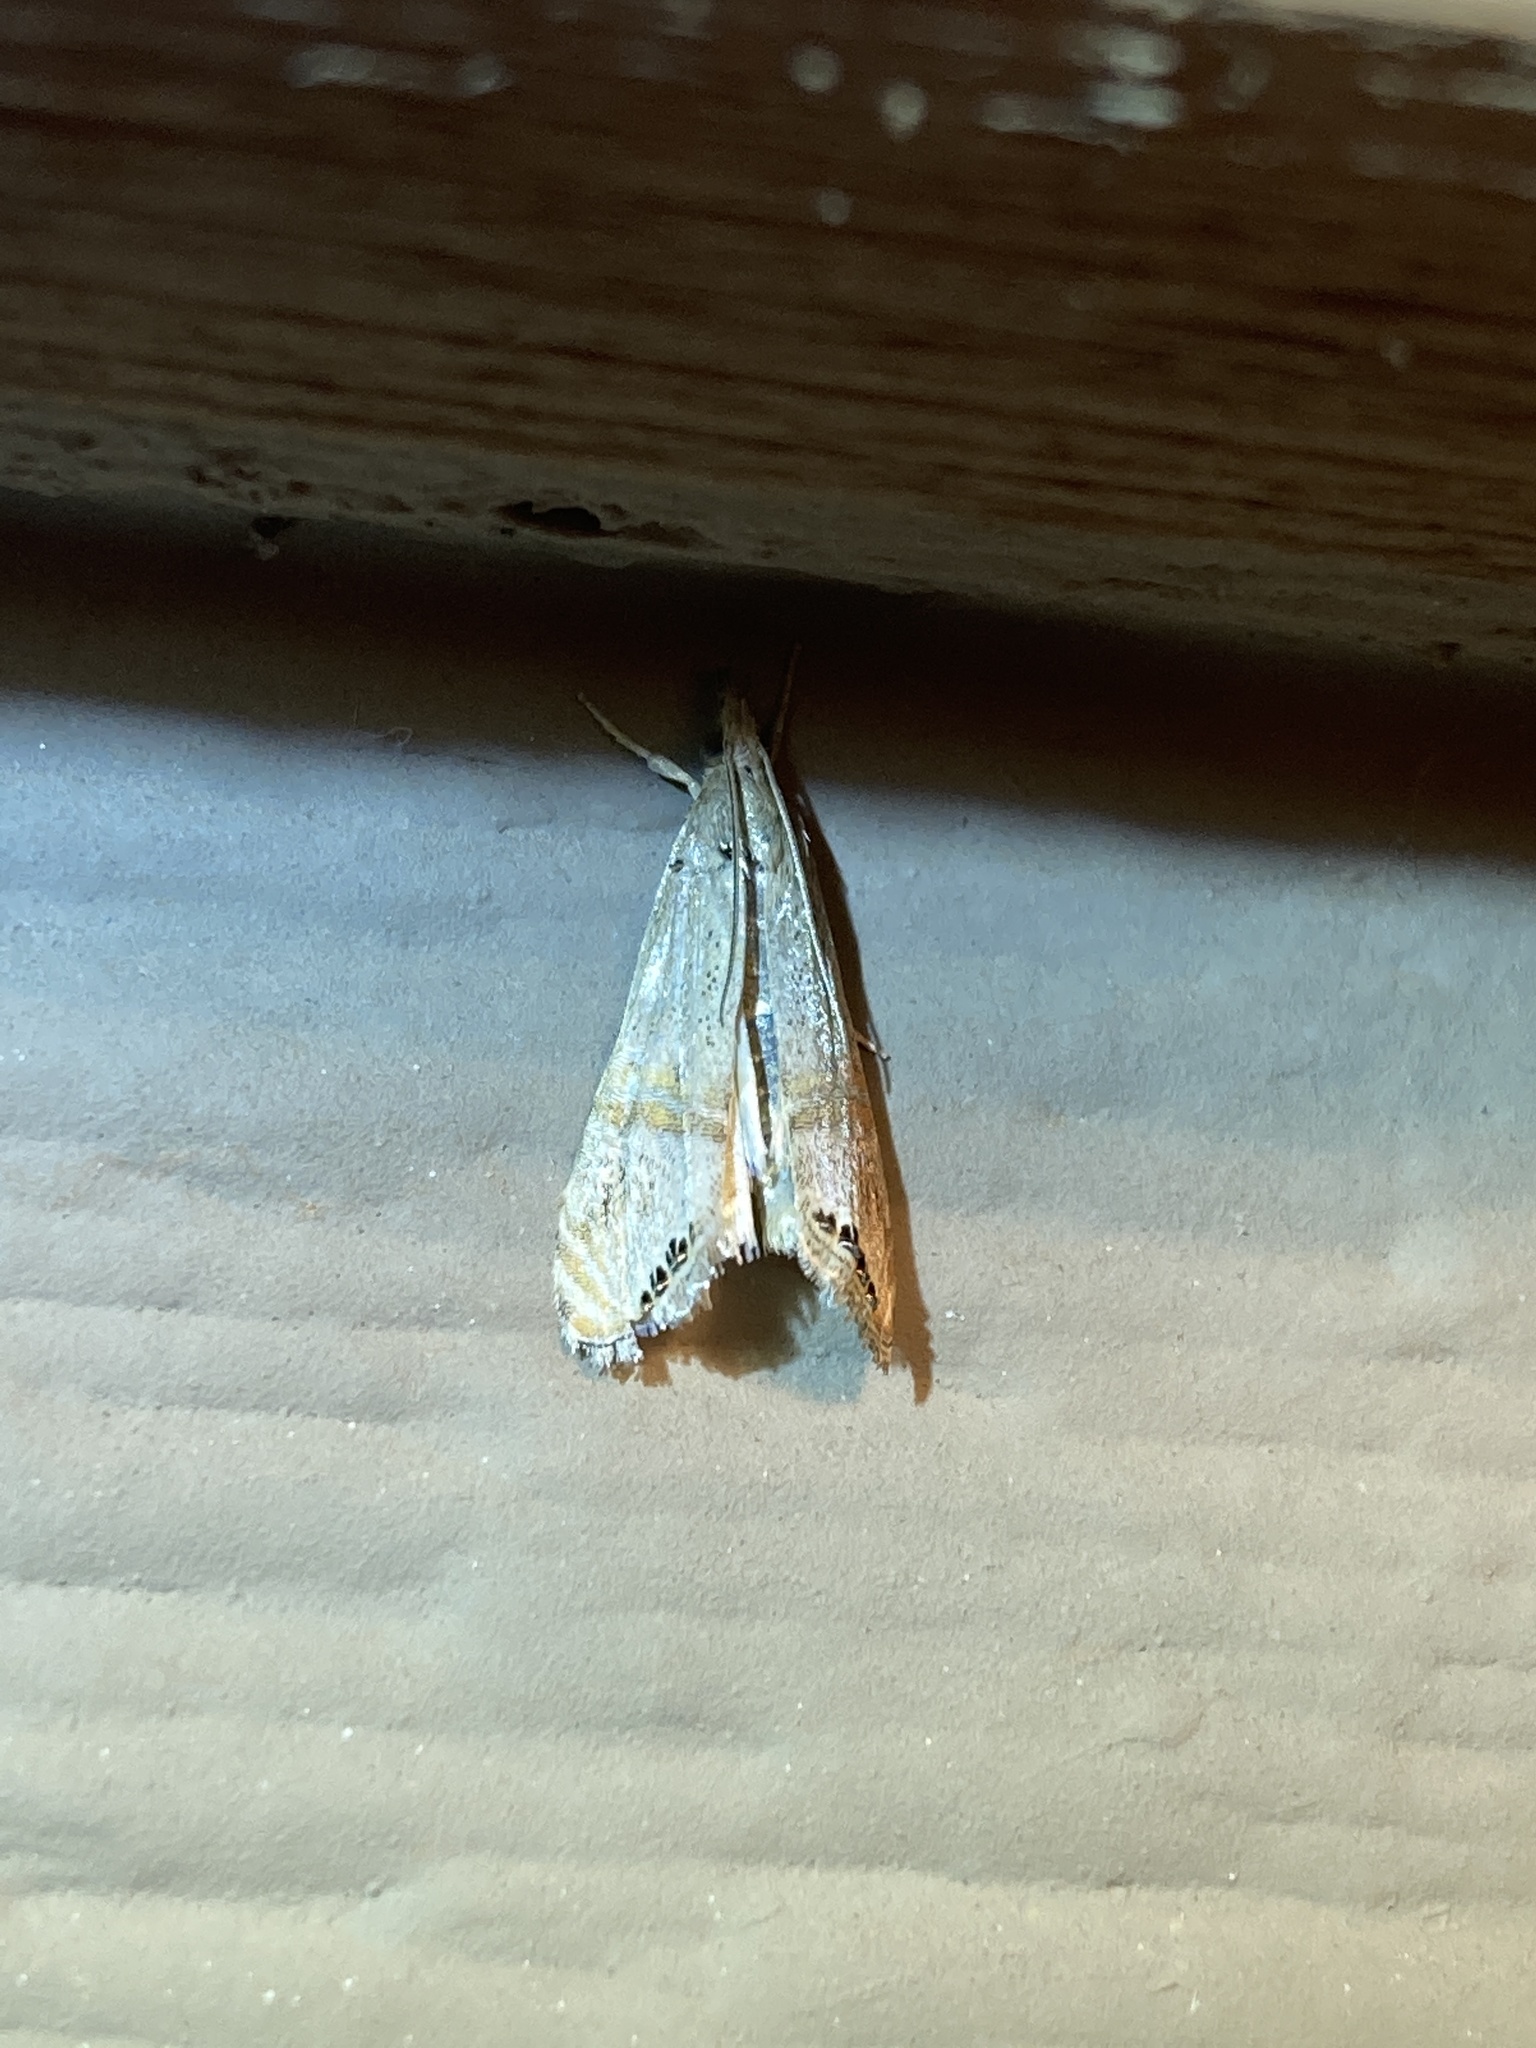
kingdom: Animalia
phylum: Arthropoda
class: Insecta
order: Lepidoptera
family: Crambidae
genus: Euchromius
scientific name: Euchromius ocellea
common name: Necklace veneer moth
